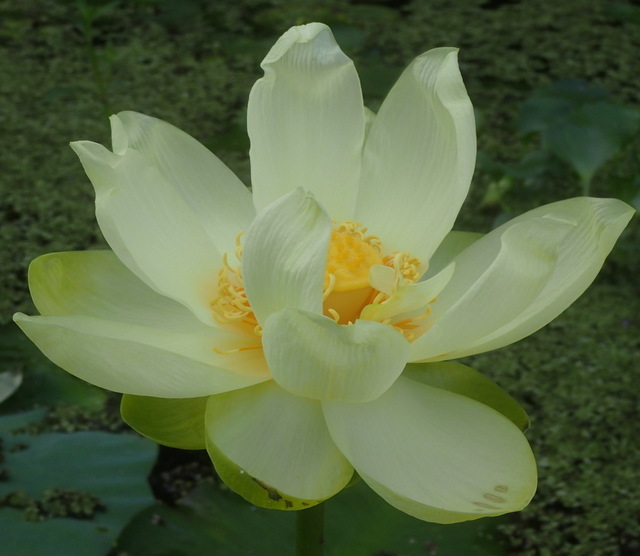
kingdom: Plantae
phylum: Tracheophyta
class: Magnoliopsida
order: Proteales
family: Nelumbonaceae
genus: Nelumbo
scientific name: Nelumbo lutea
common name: American lotus
